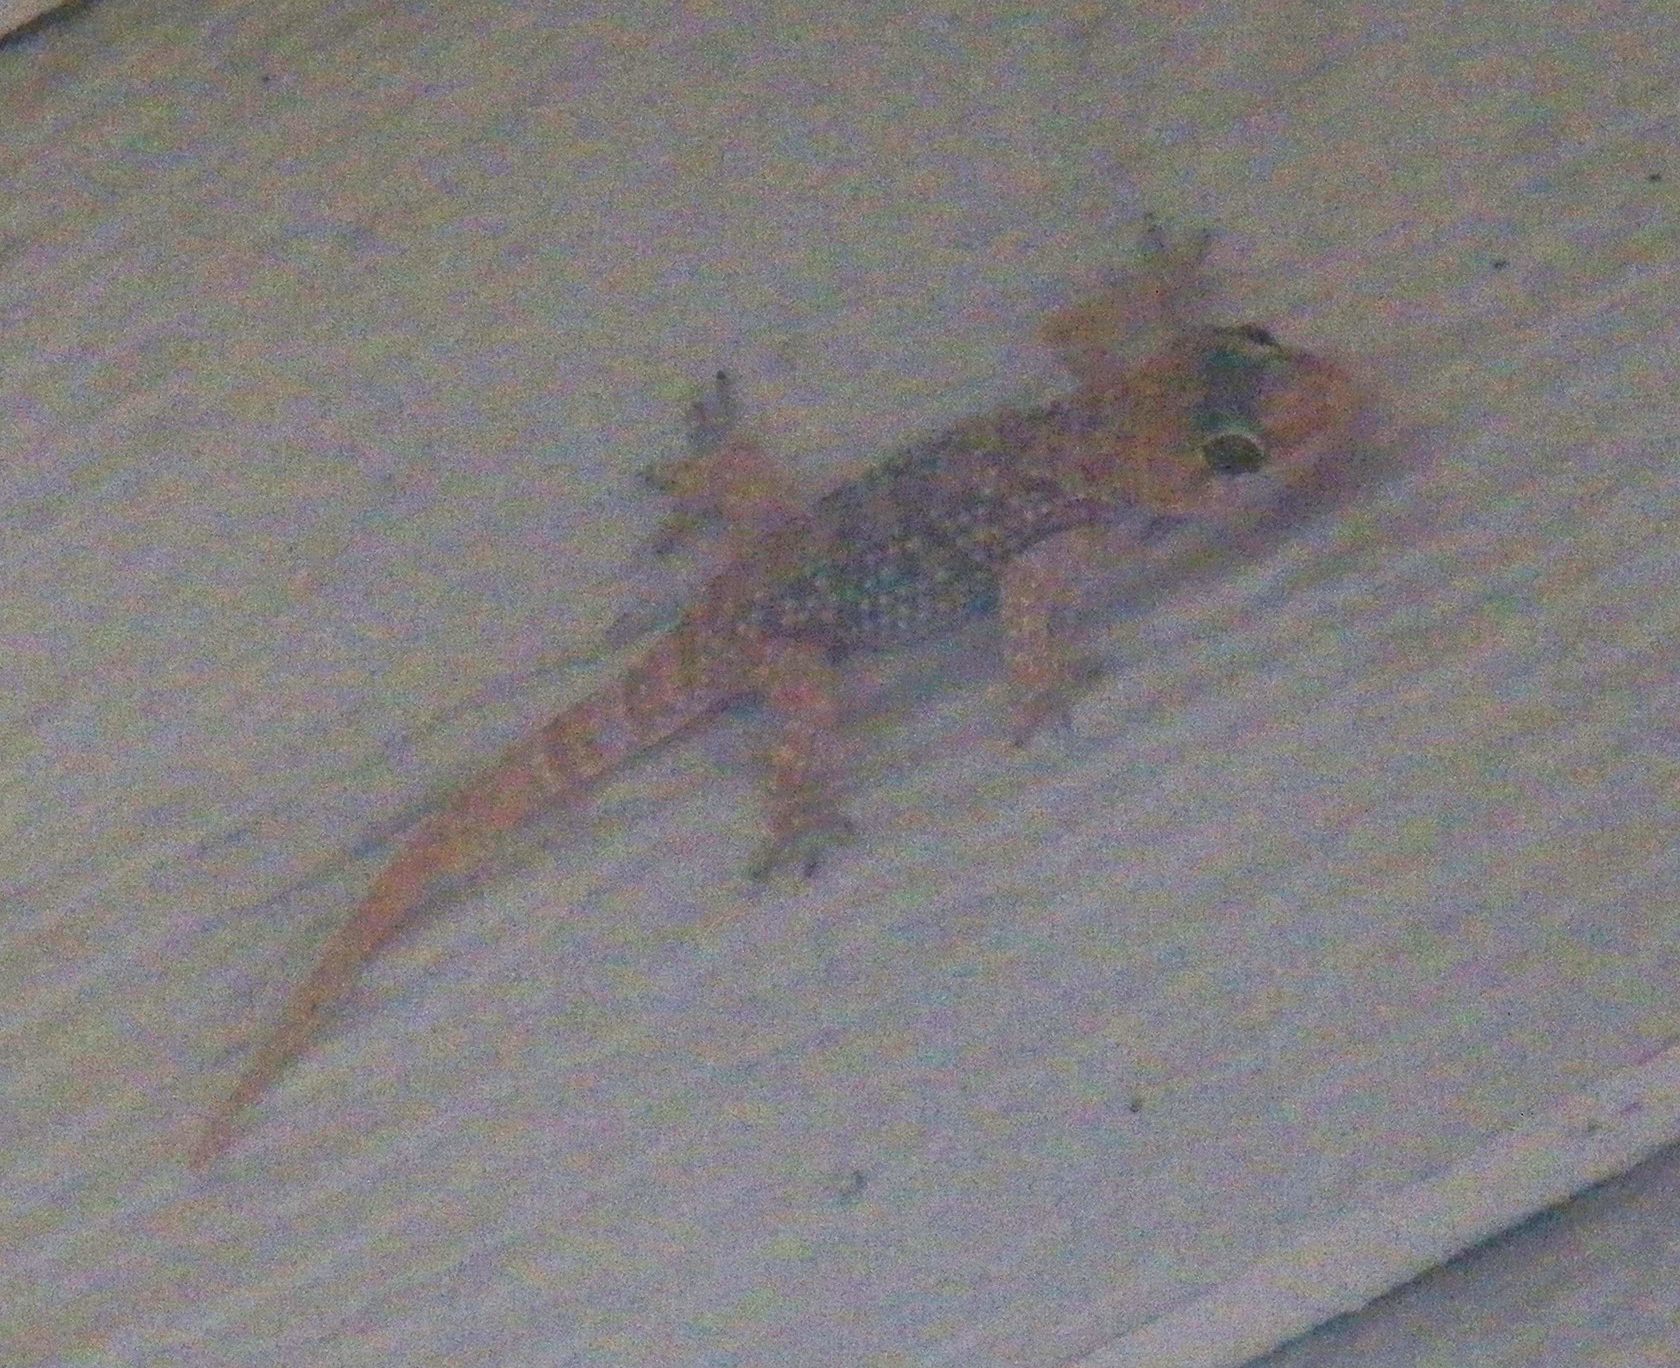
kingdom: Animalia
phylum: Chordata
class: Squamata
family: Gekkonidae
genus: Hemidactylus
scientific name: Hemidactylus turcicus
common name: Turkish gecko
